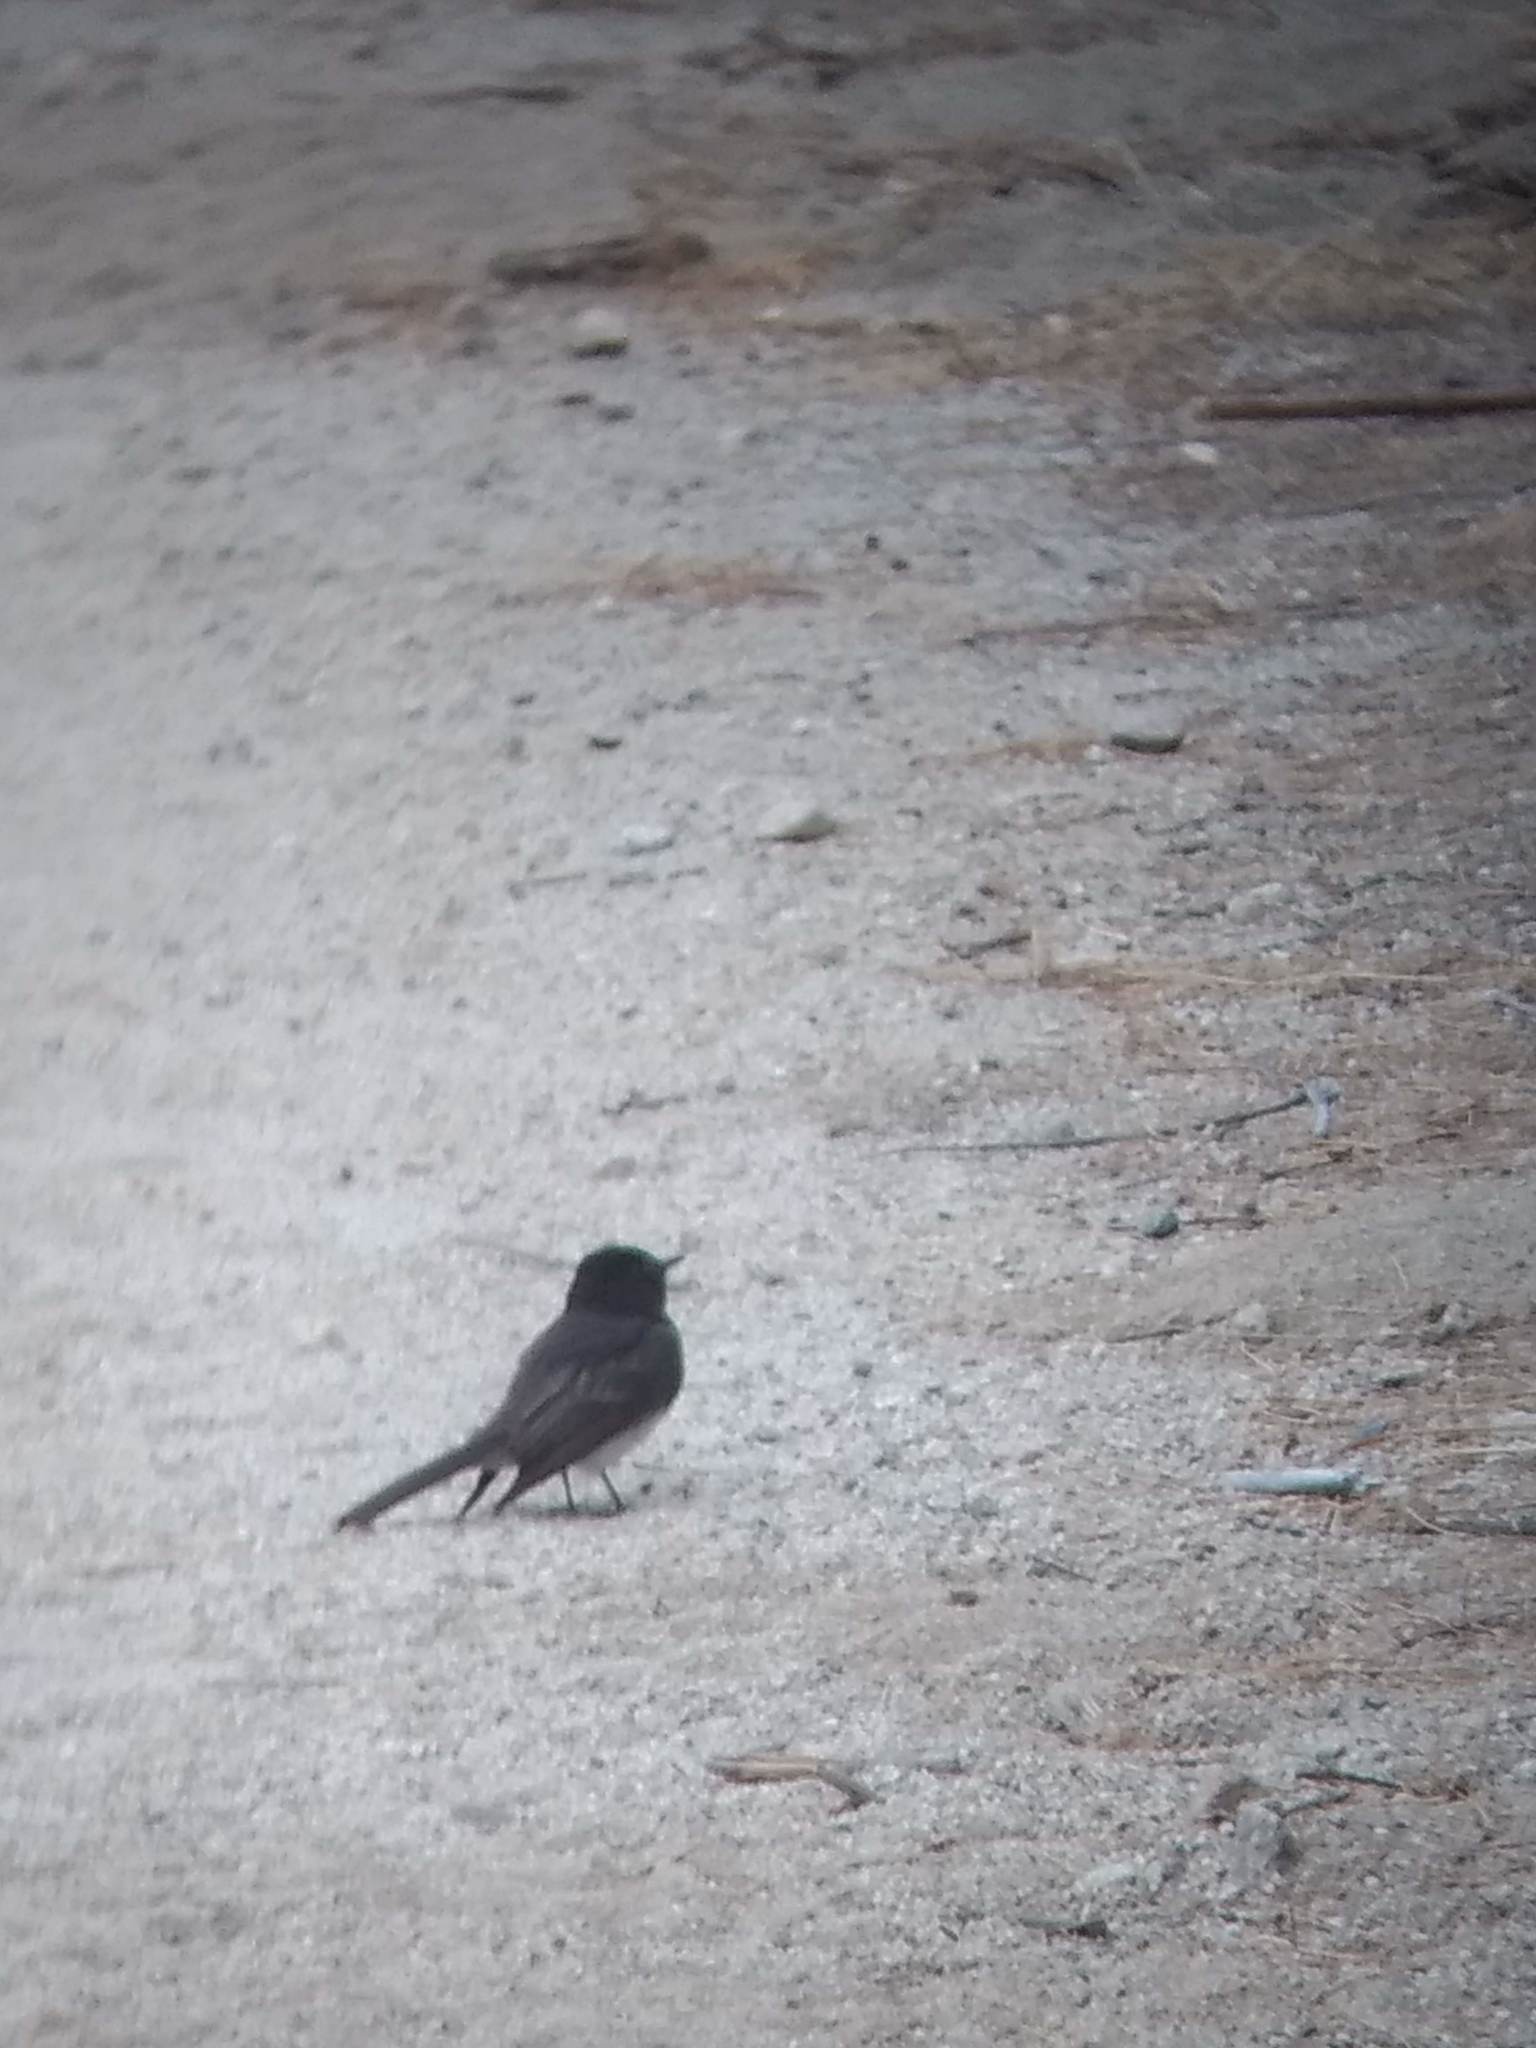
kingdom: Animalia
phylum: Chordata
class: Aves
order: Passeriformes
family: Tyrannidae
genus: Sayornis
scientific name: Sayornis nigricans
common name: Black phoebe
